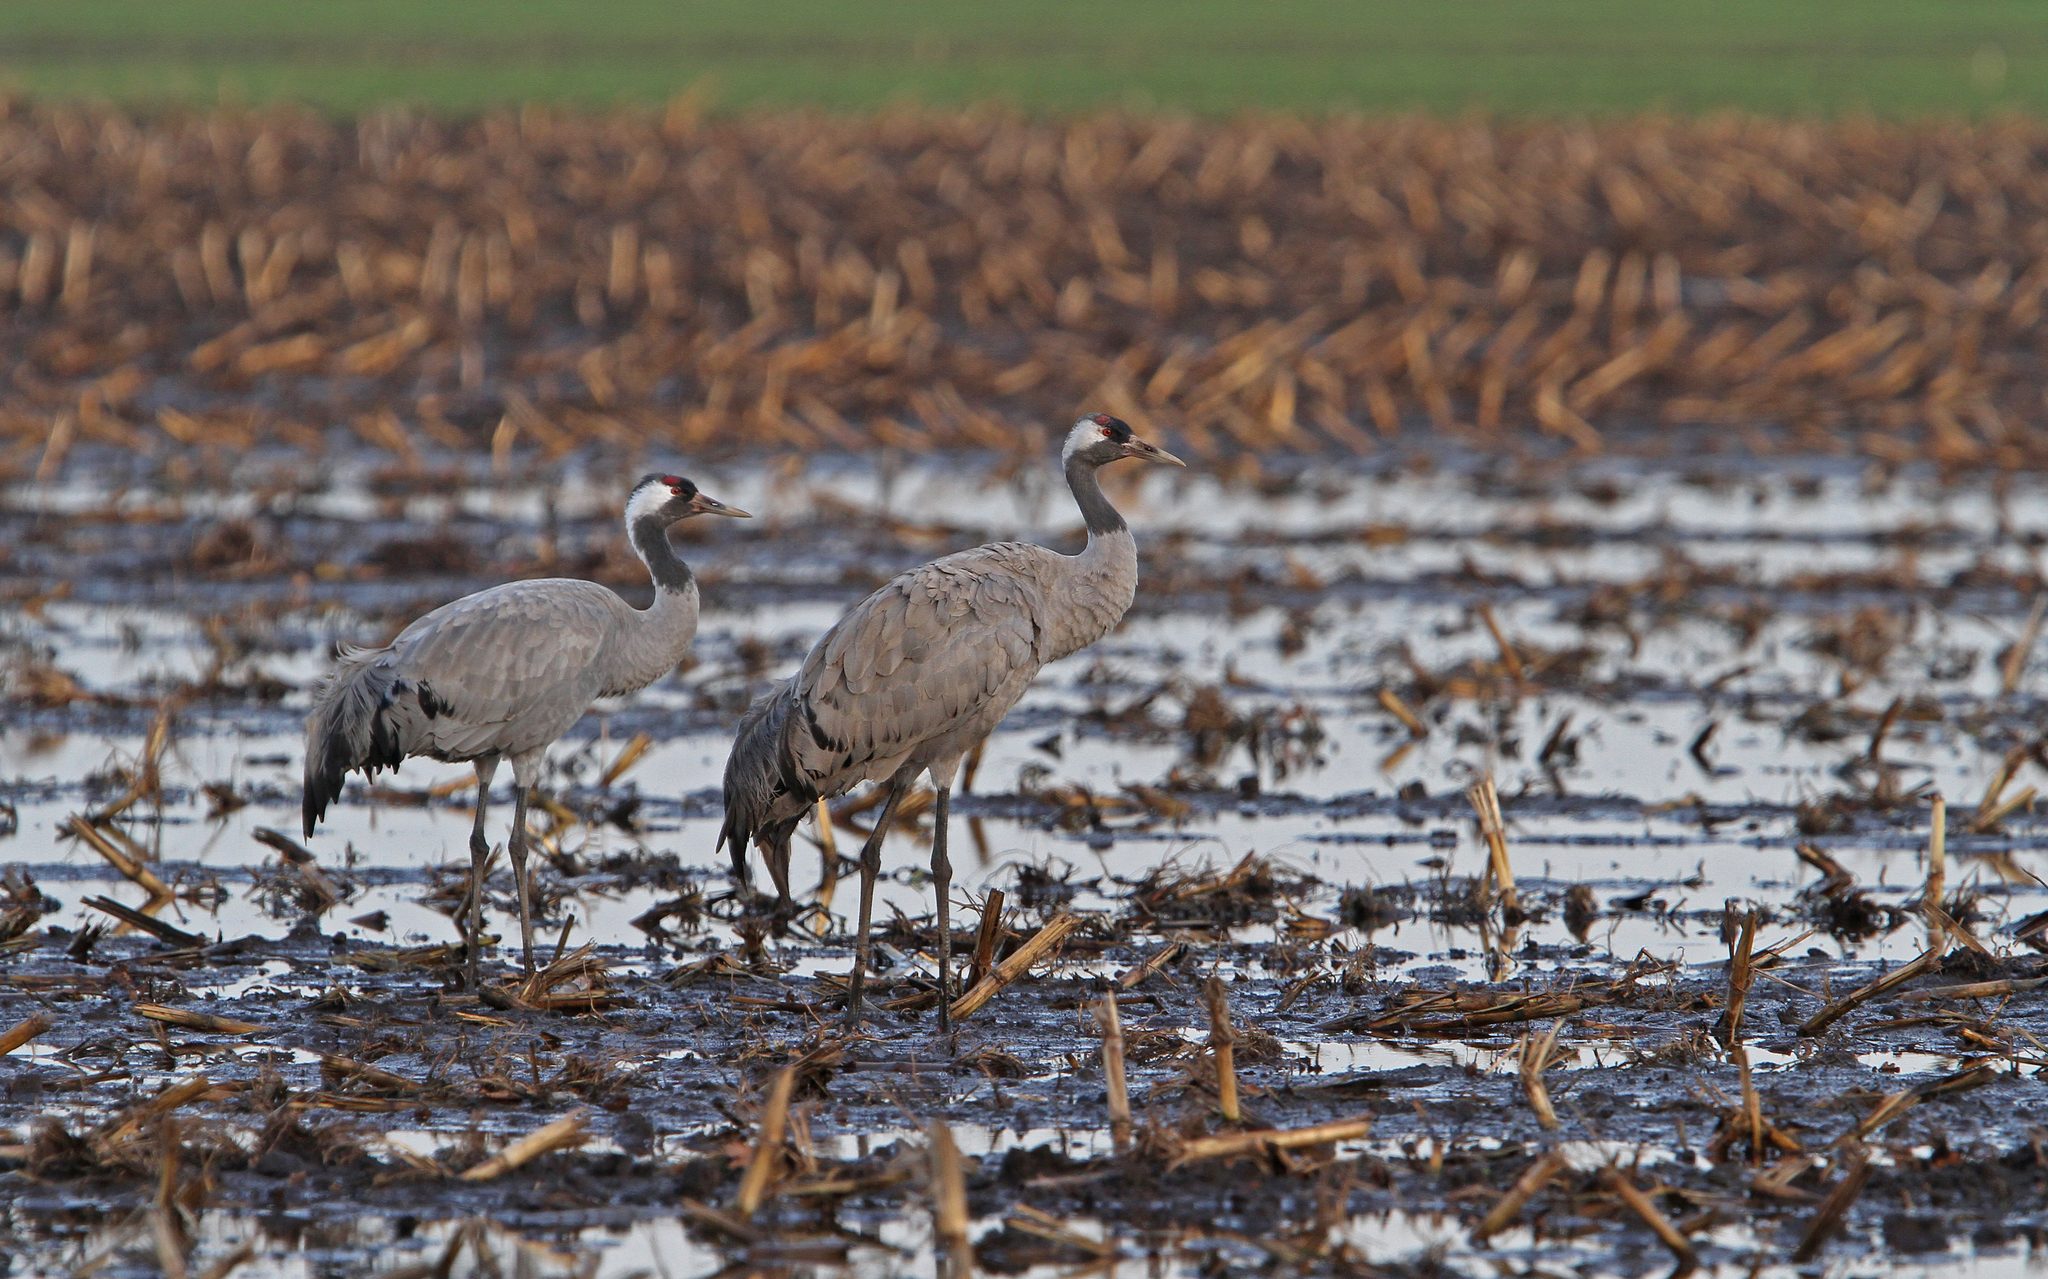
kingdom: Animalia
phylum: Chordata
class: Aves
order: Gruiformes
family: Gruidae
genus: Grus
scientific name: Grus grus
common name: Common crane
